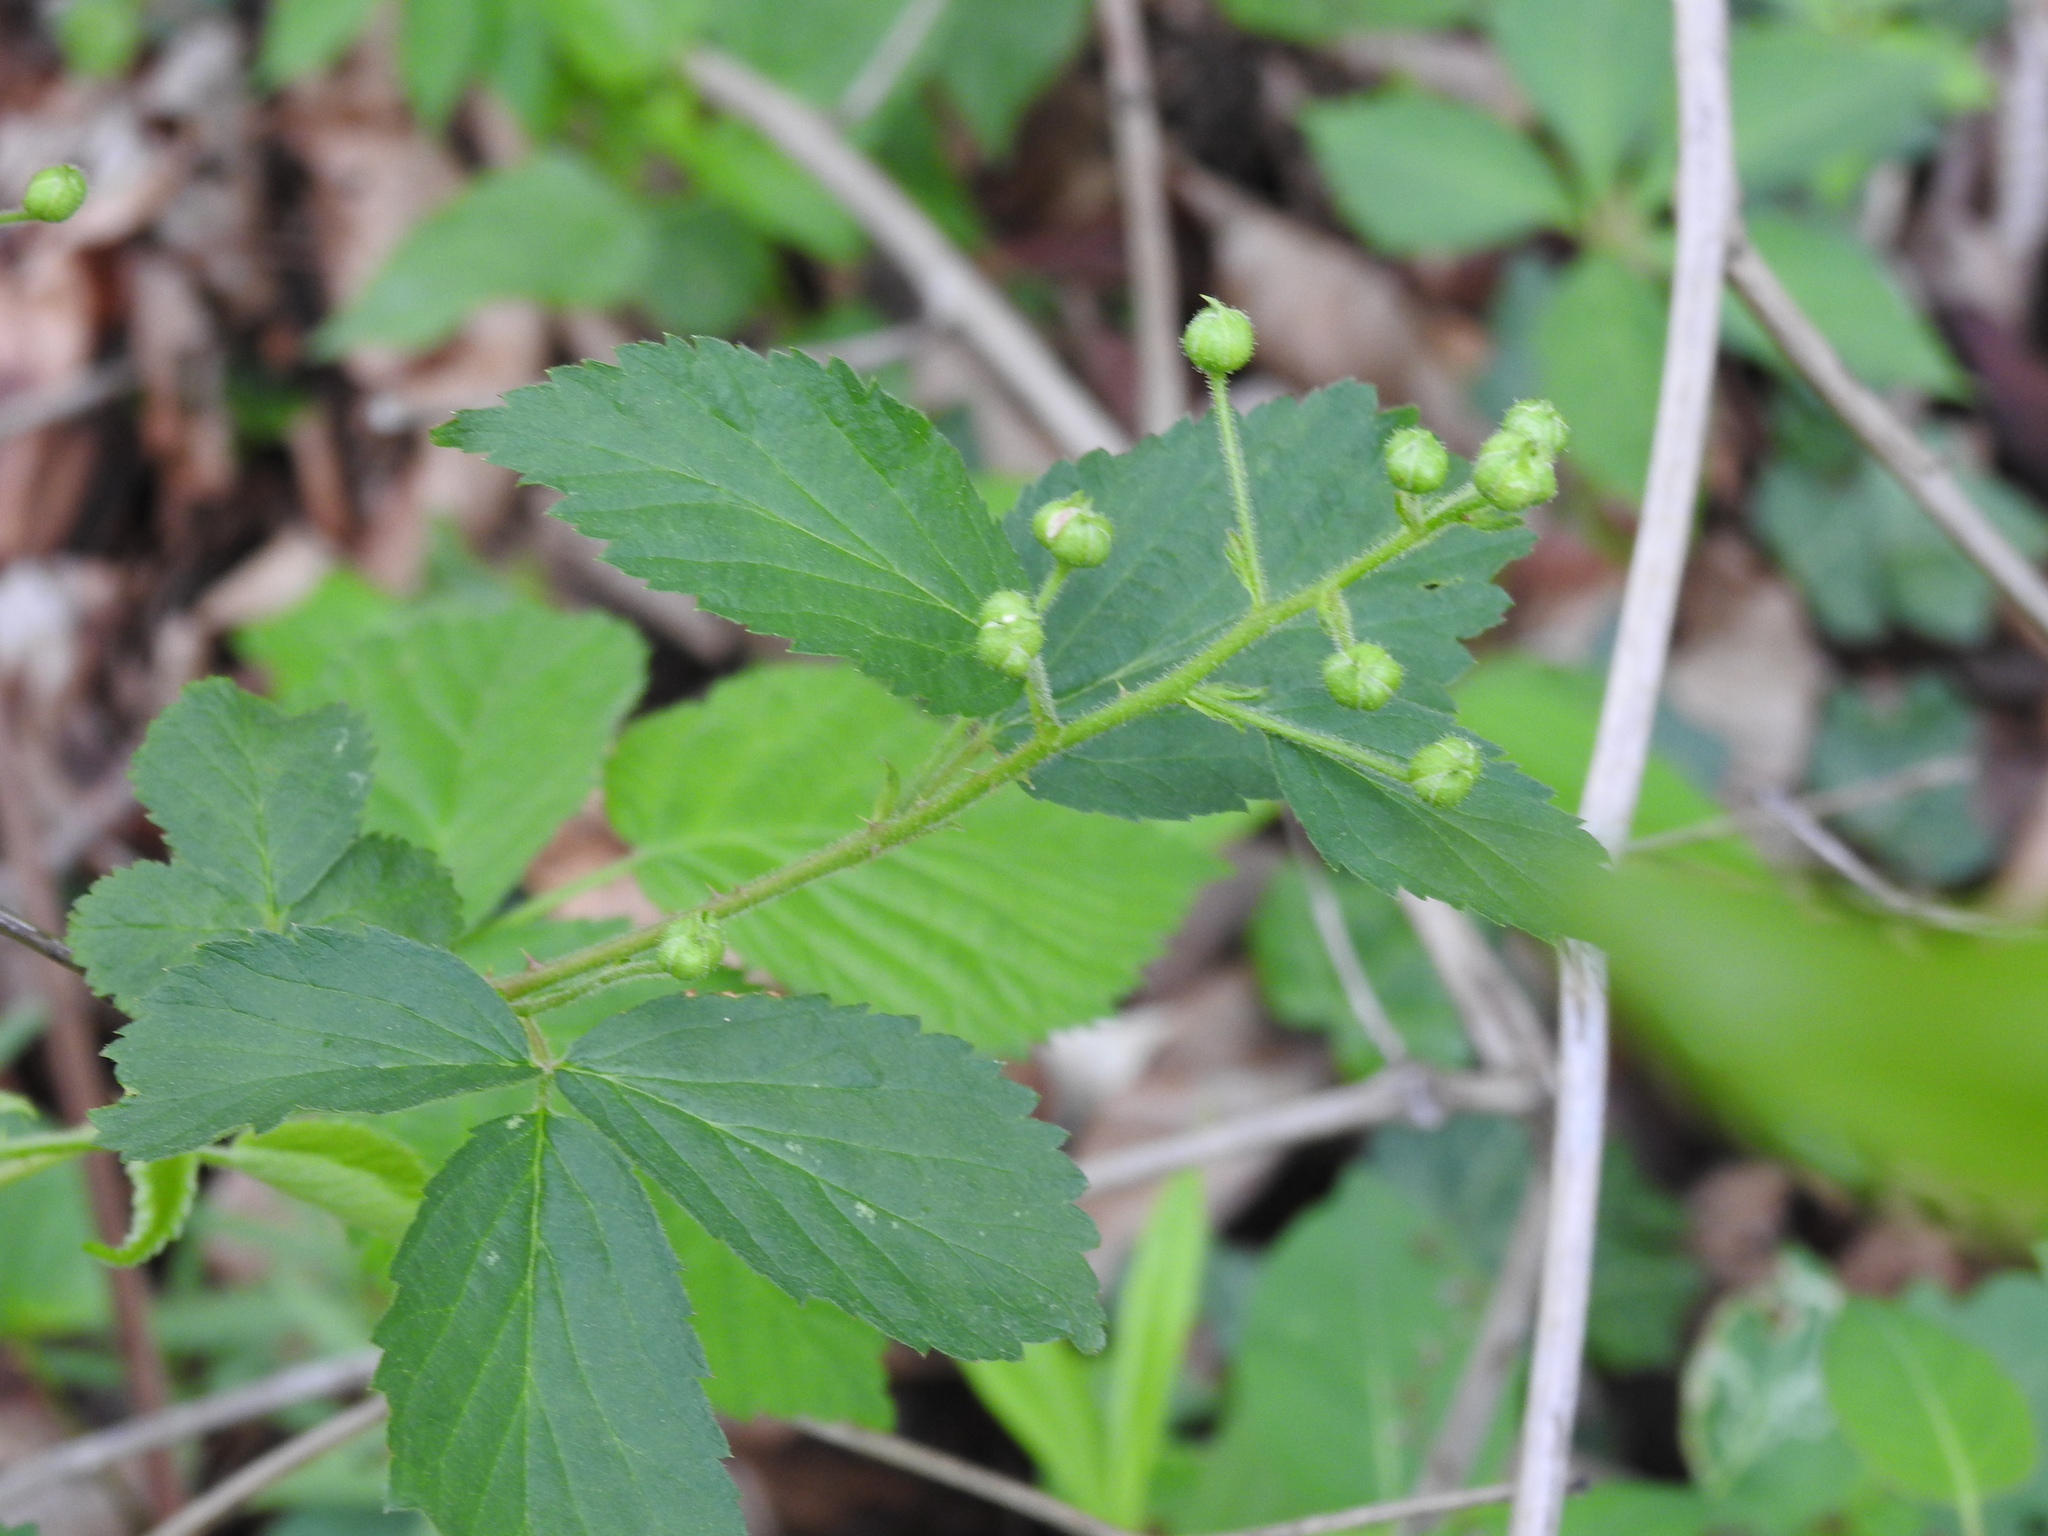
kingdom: Plantae
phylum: Tracheophyta
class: Magnoliopsida
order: Rosales
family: Rosaceae
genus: Rubus
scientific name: Rubus allegheniensis
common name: Allegheny blackberry
